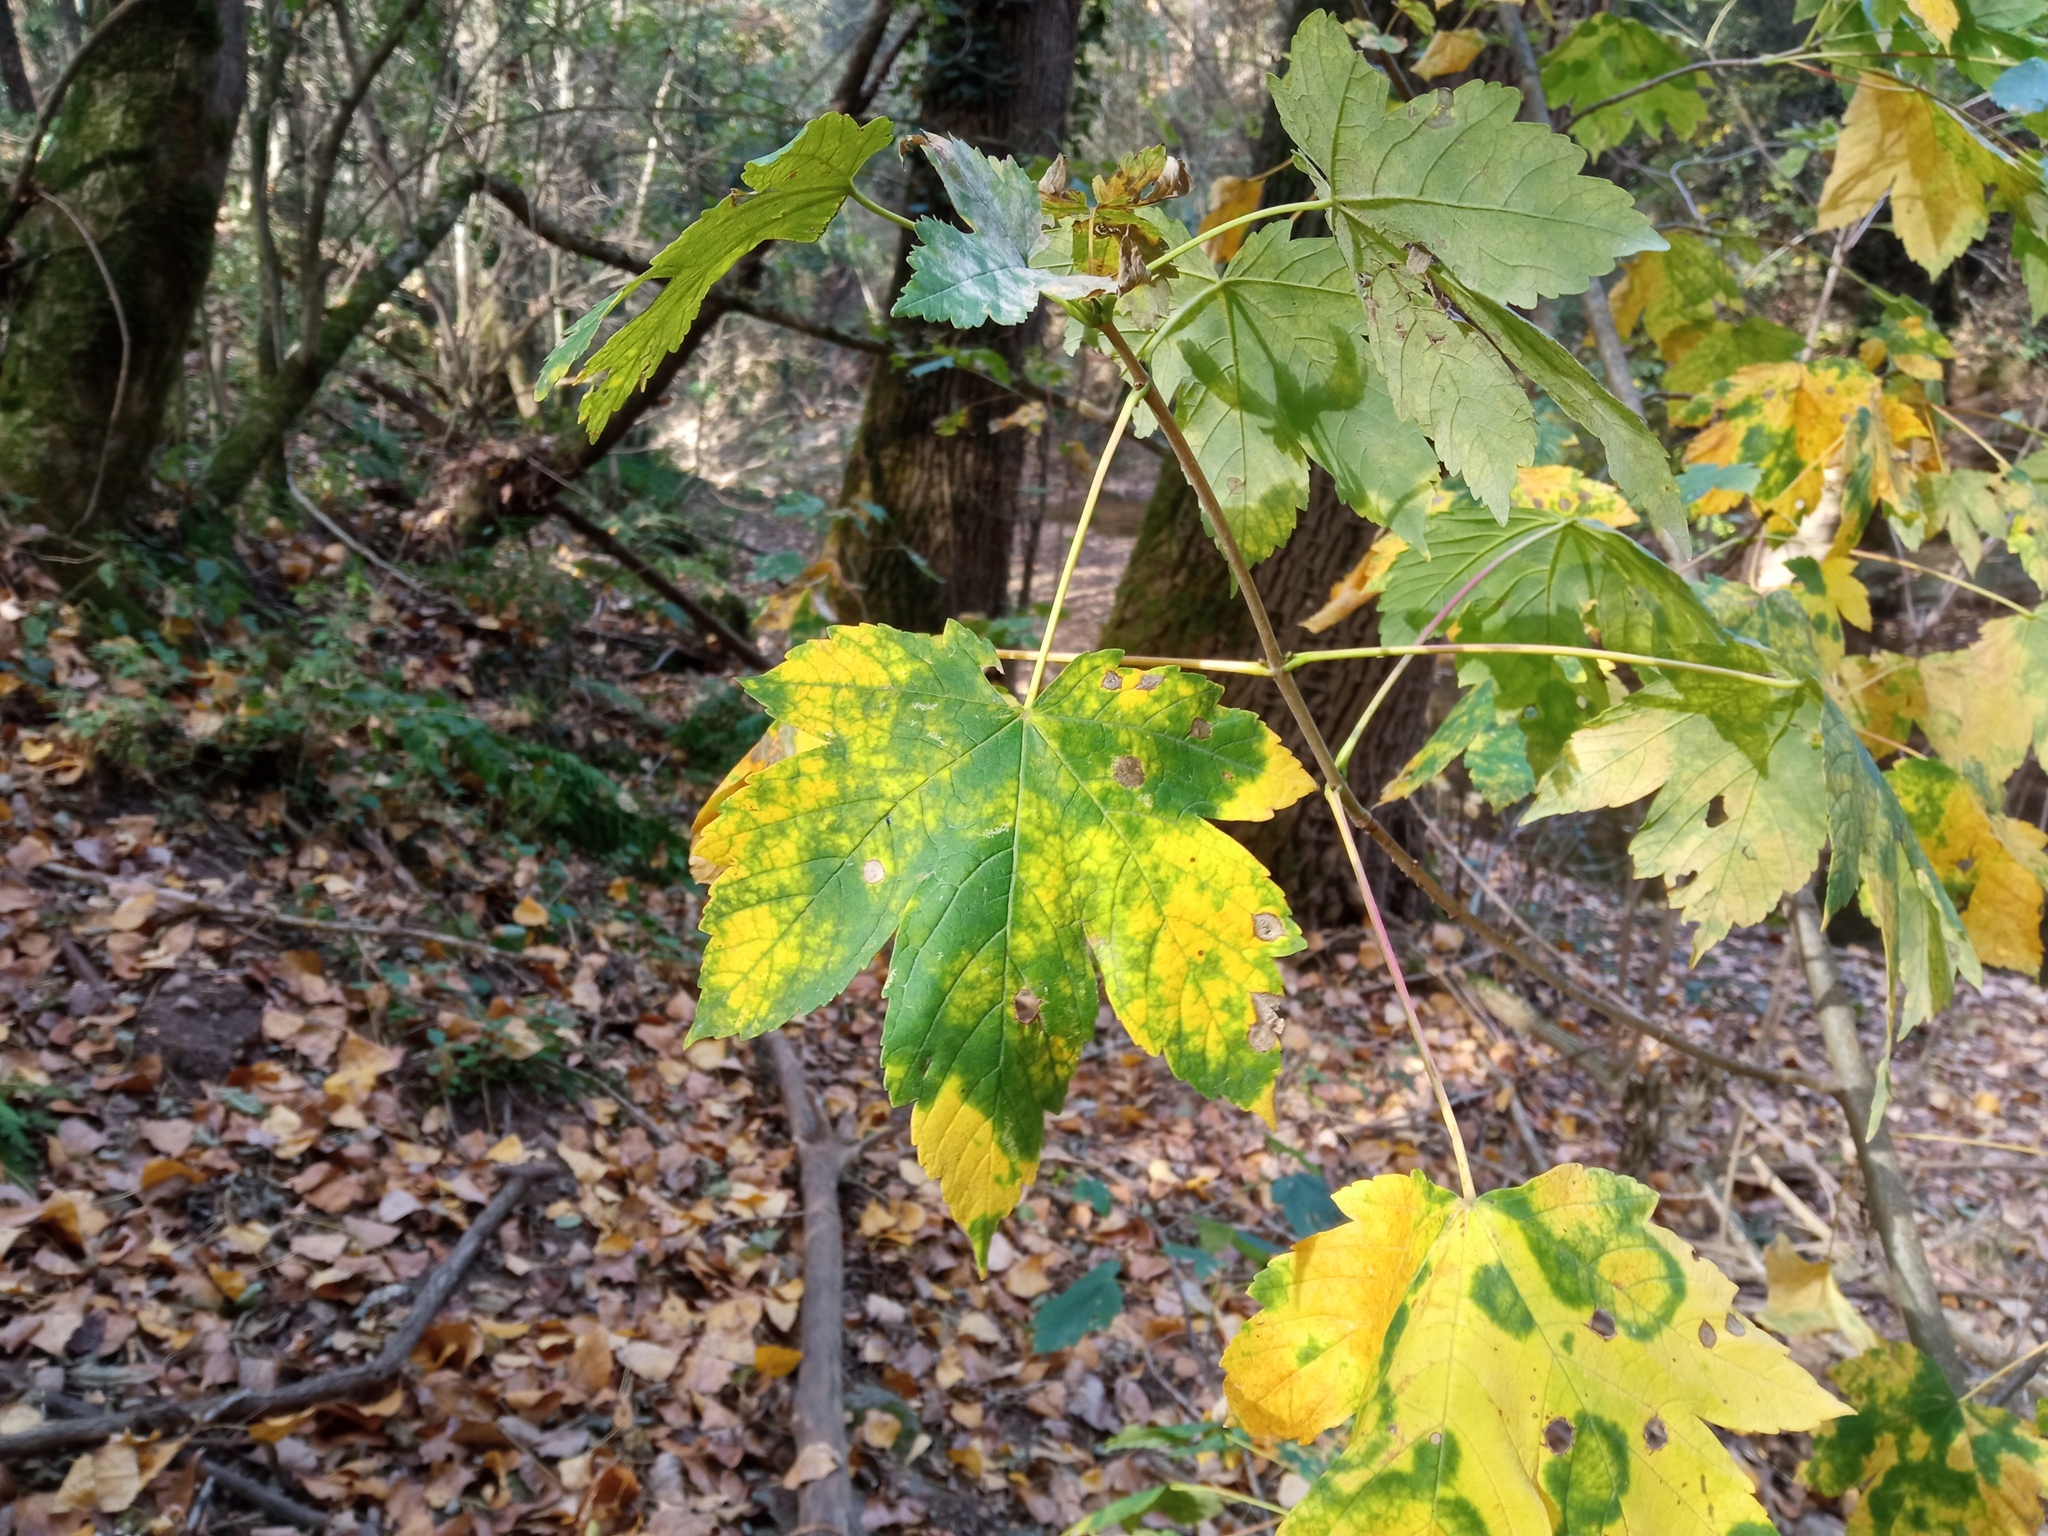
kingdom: Plantae
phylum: Tracheophyta
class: Magnoliopsida
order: Sapindales
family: Sapindaceae
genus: Acer
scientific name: Acer pseudoplatanus
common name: Sycamore
